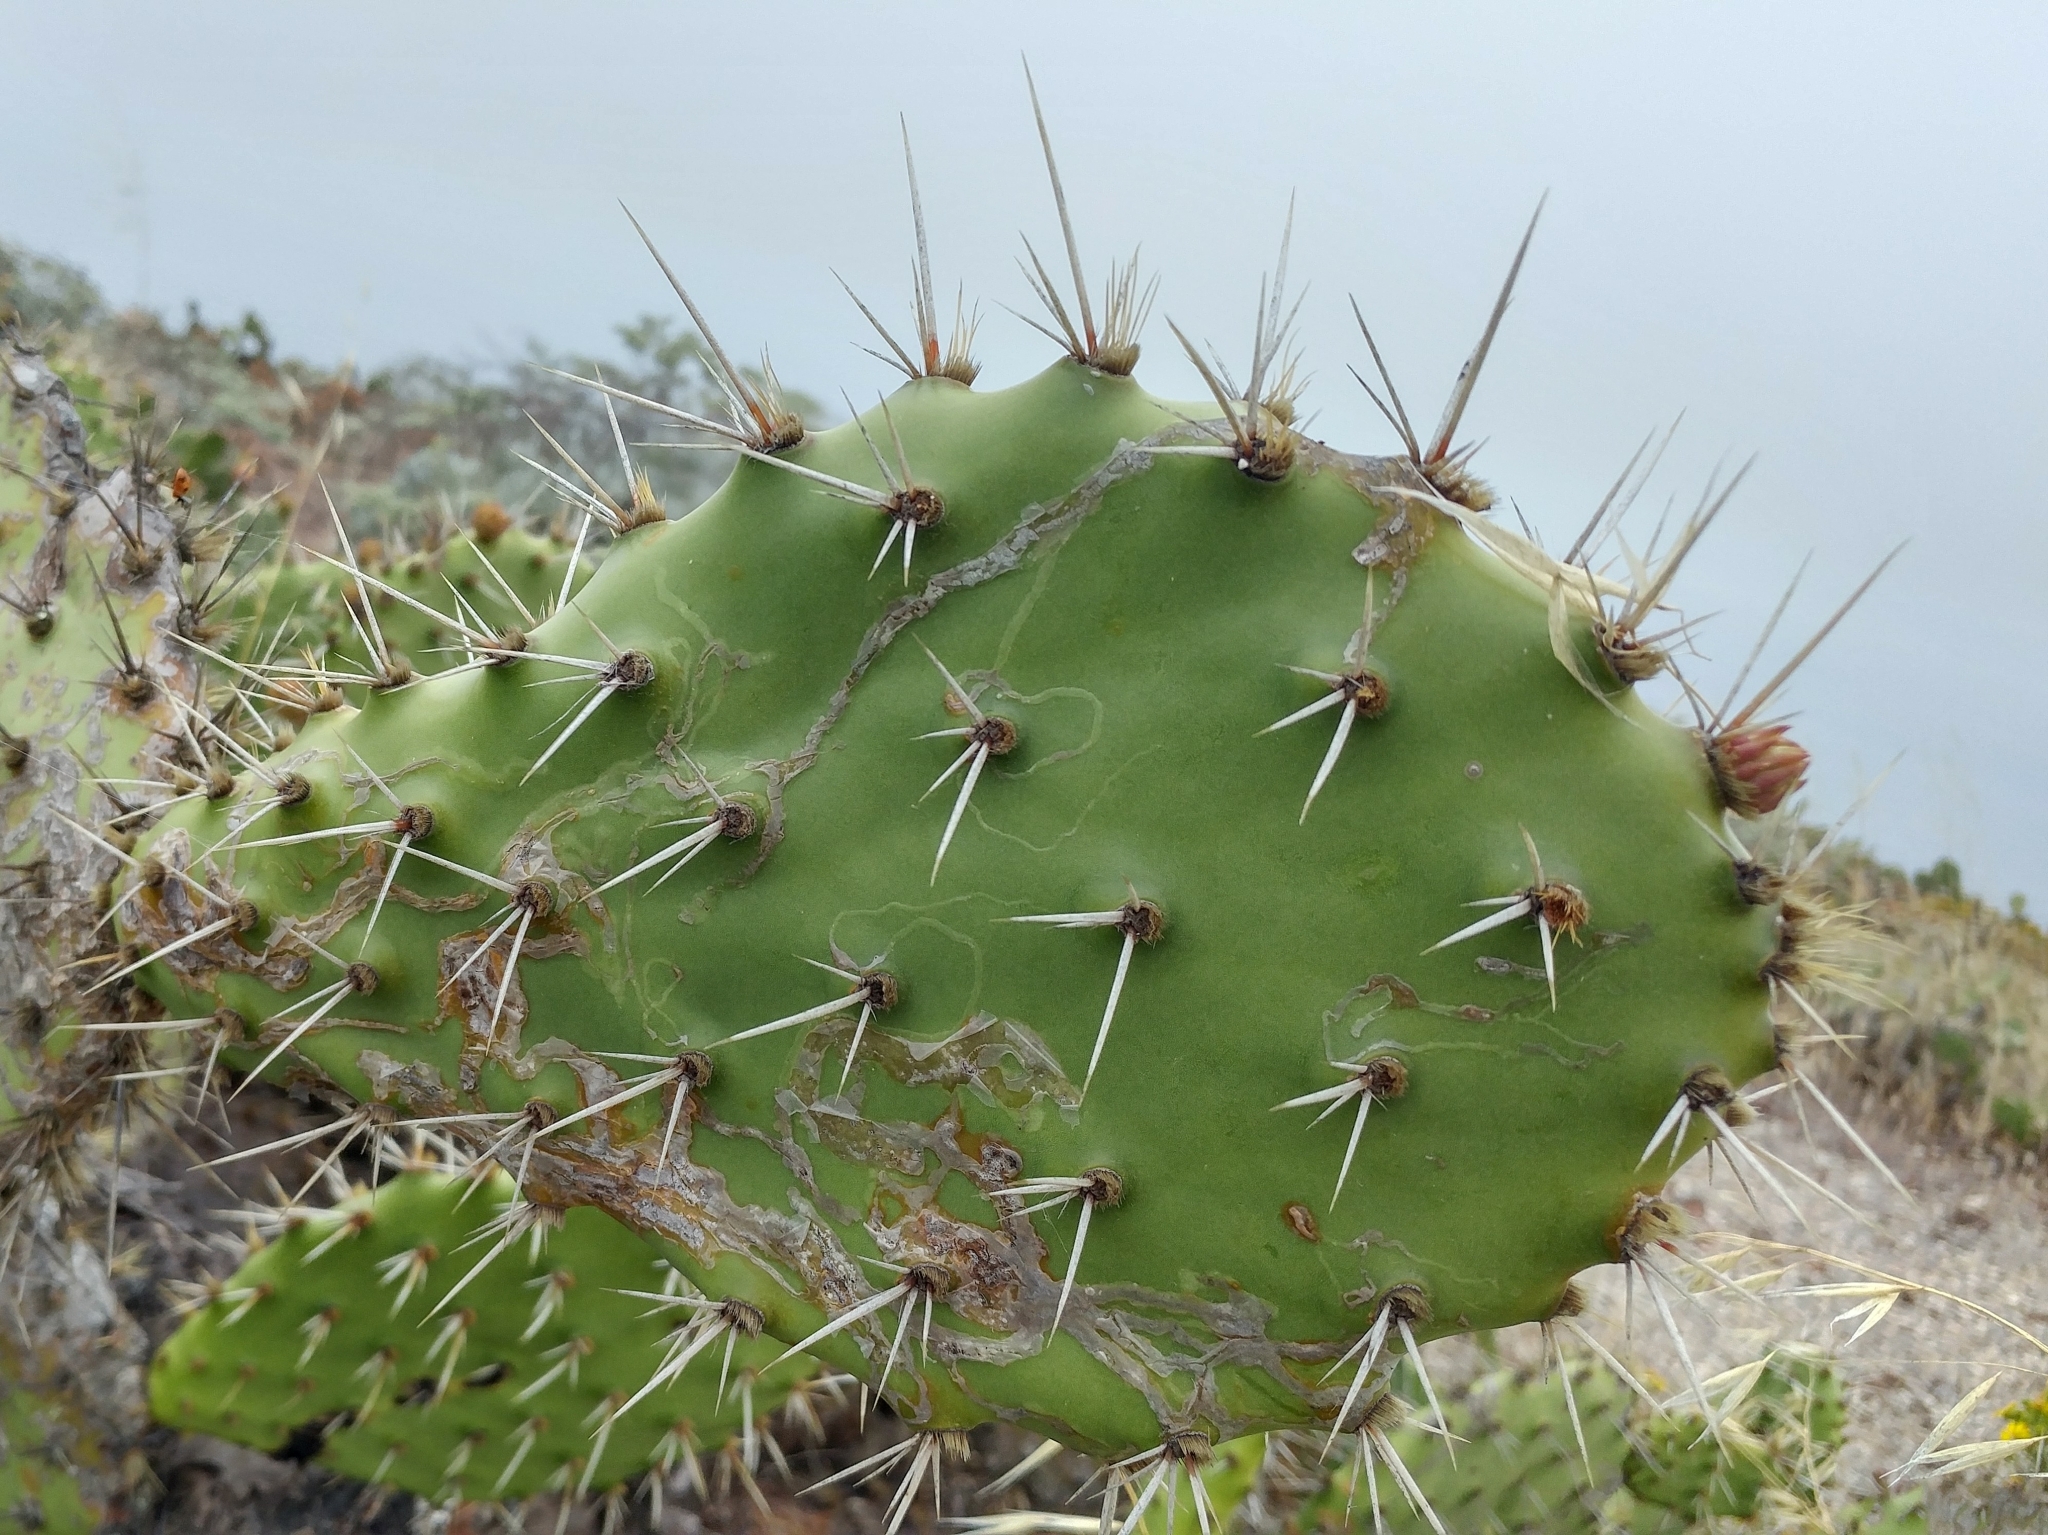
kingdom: Animalia
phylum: Arthropoda
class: Insecta
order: Lepidoptera
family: Gracillariidae
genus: Marmara
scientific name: Marmara opuntiella
